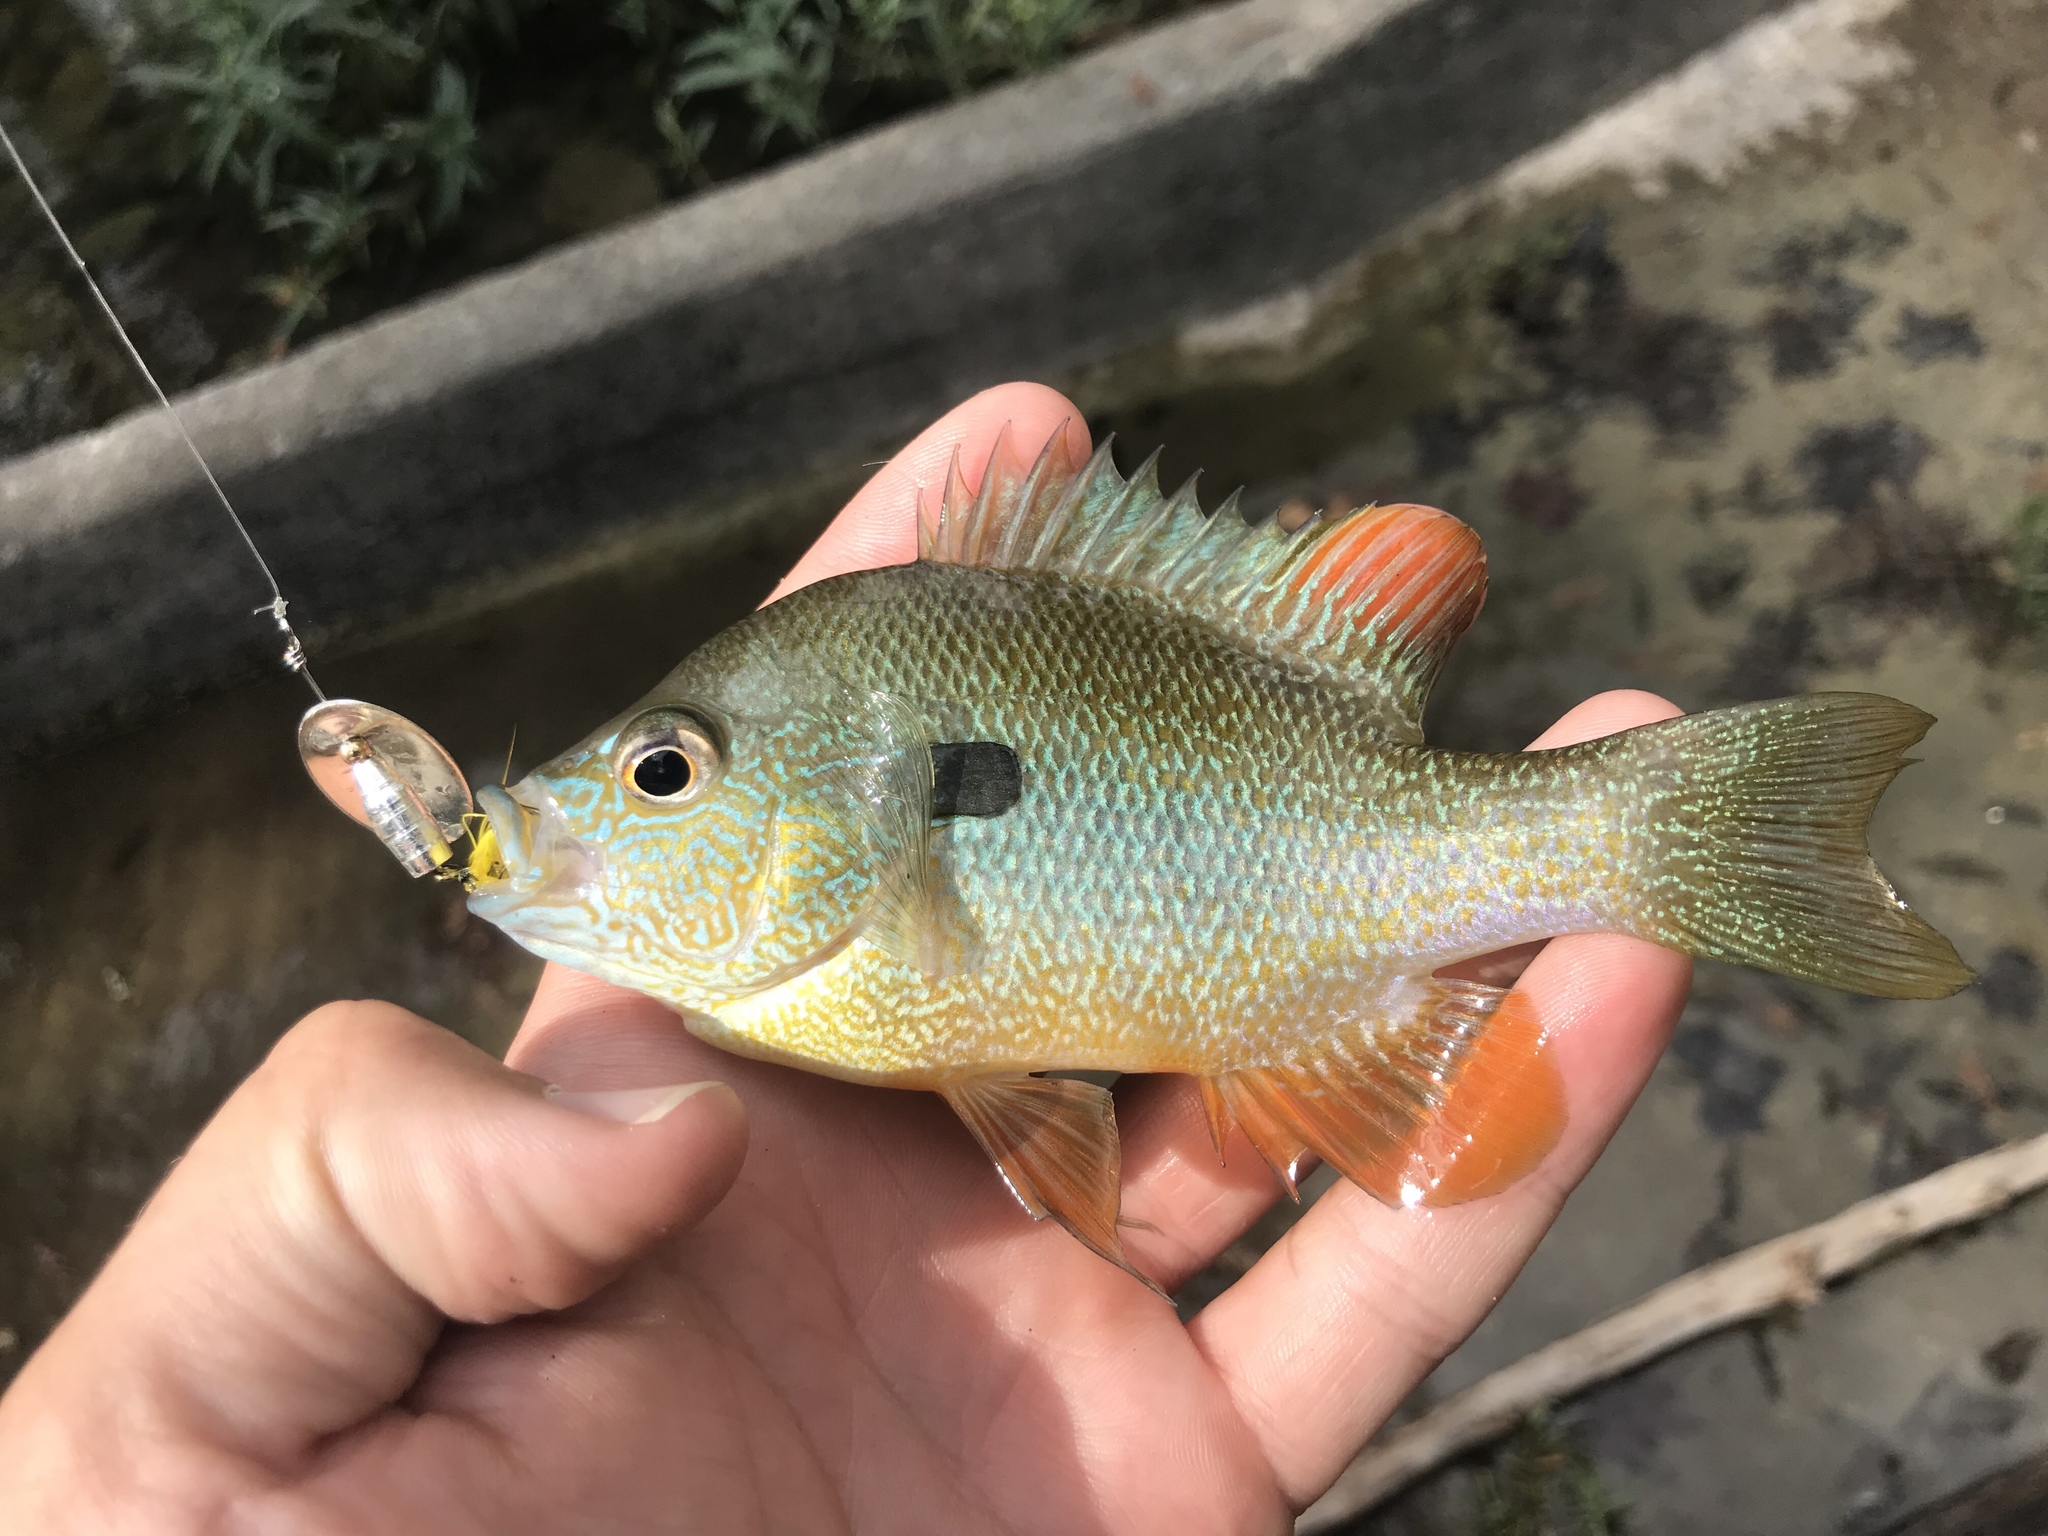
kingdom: Animalia
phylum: Chordata
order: Perciformes
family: Centrarchidae
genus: Lepomis
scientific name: Lepomis megalotis
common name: Longear sunfish
